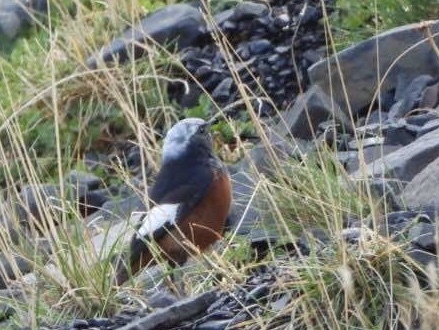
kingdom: Animalia
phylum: Chordata
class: Aves
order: Passeriformes
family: Muscicapidae
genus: Phoenicurus
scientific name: Phoenicurus erythrogastrus
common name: Güldenstädt's redstart
